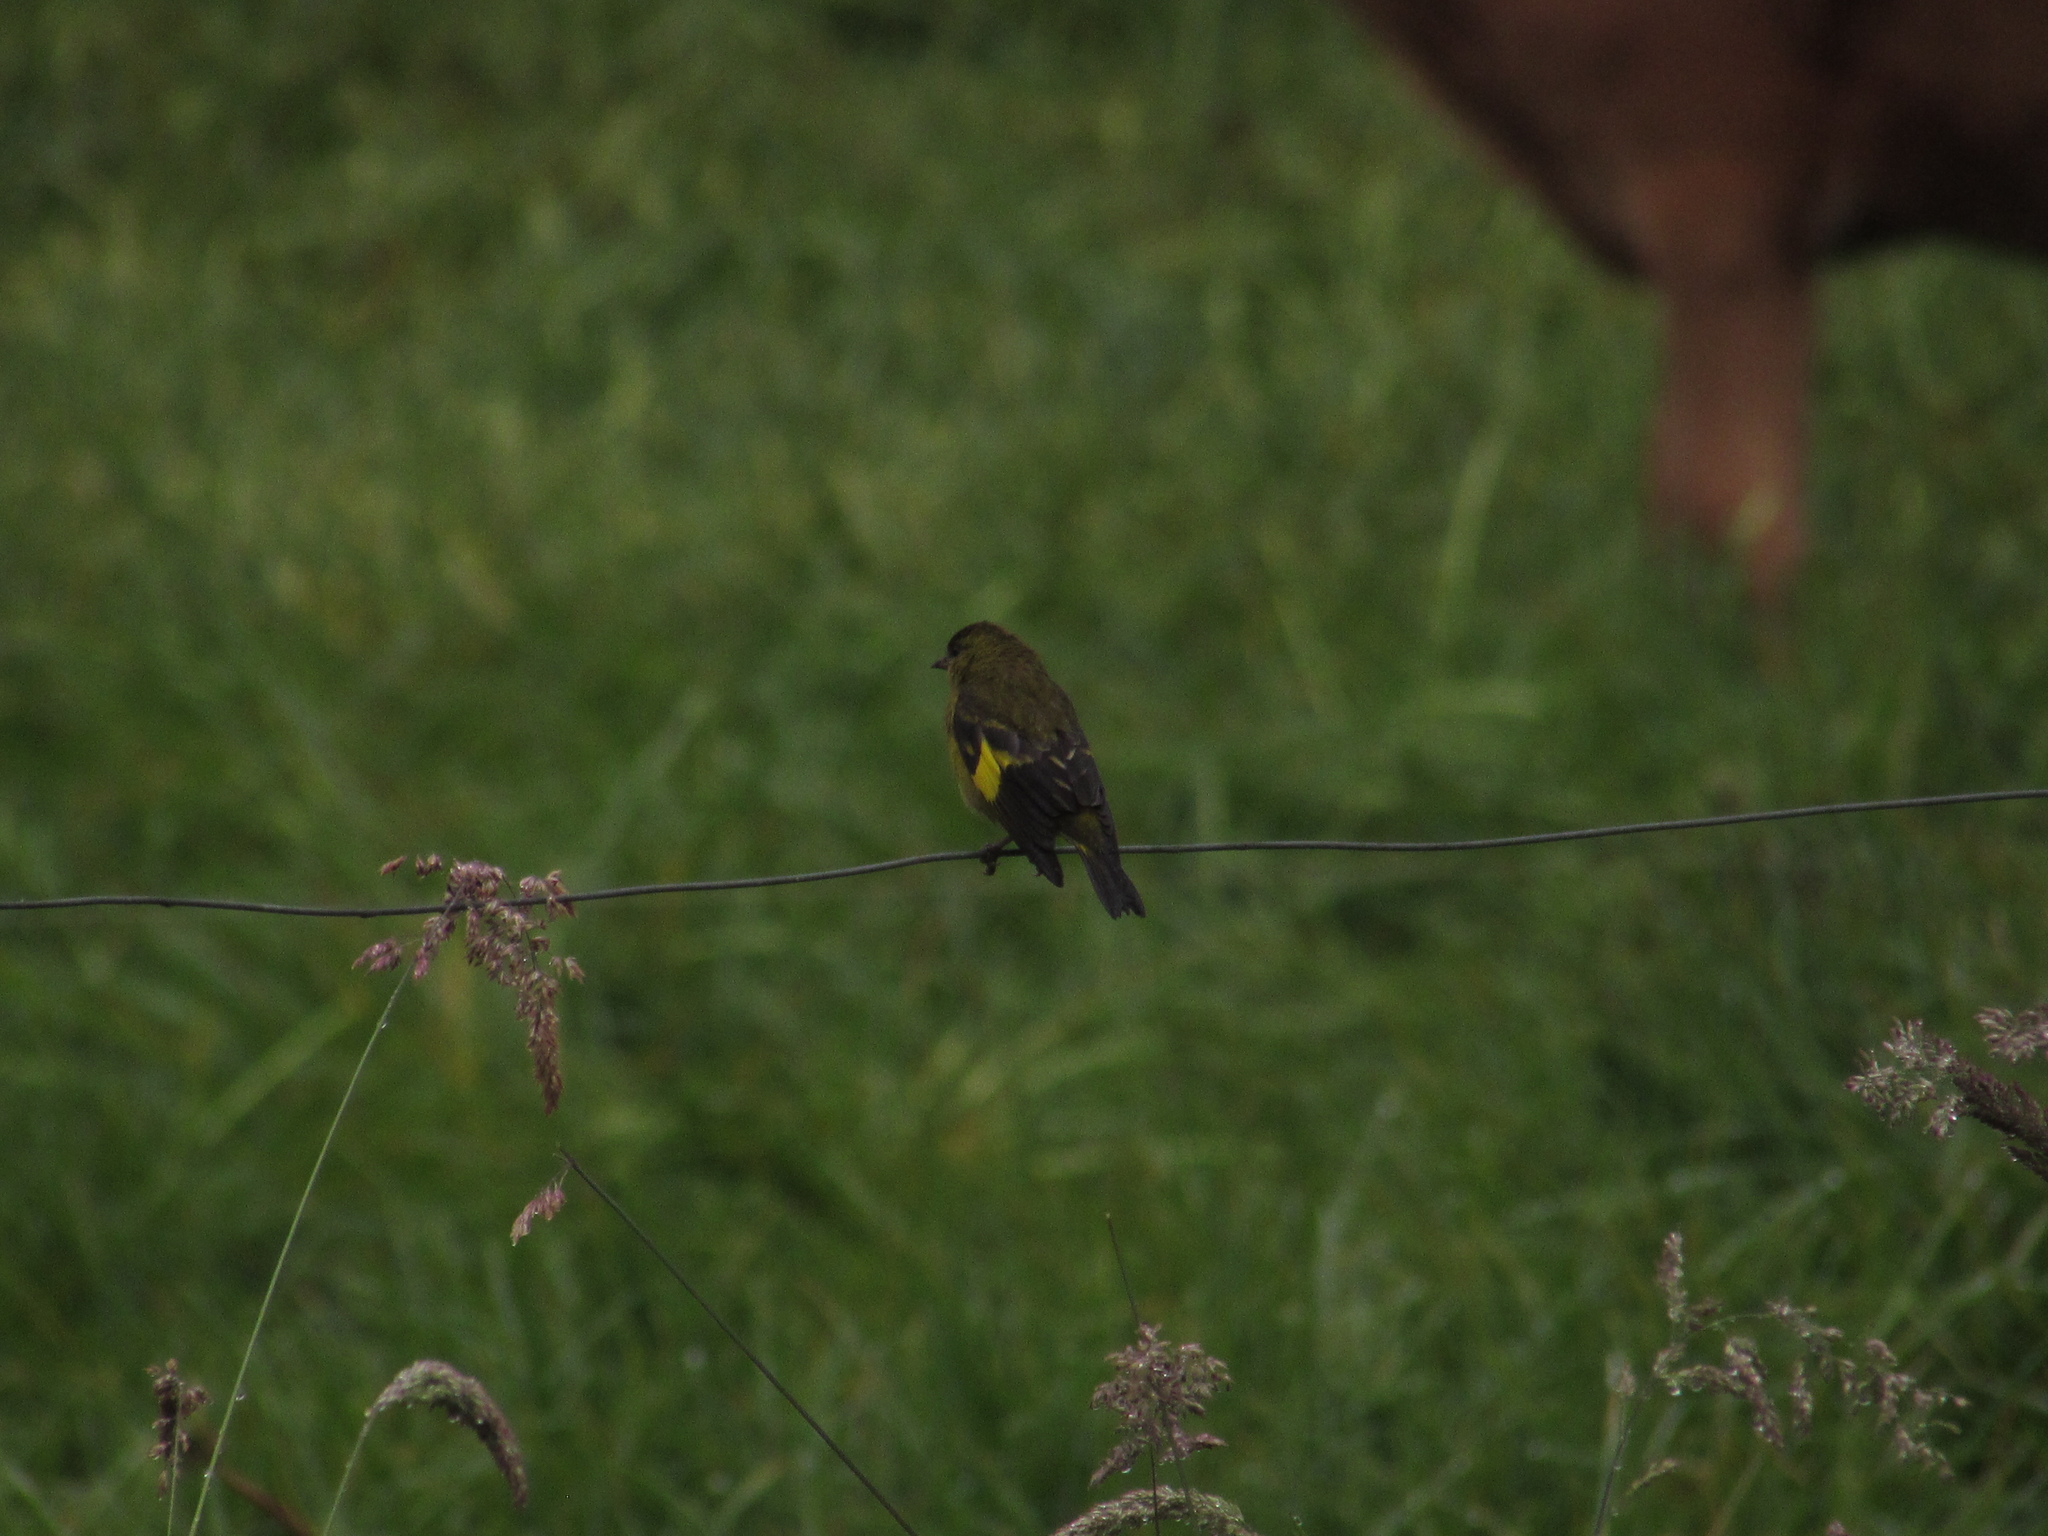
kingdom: Animalia
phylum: Chordata
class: Aves
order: Passeriformes
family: Fringillidae
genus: Spinus
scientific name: Spinus spinescens
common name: Andean siskin
